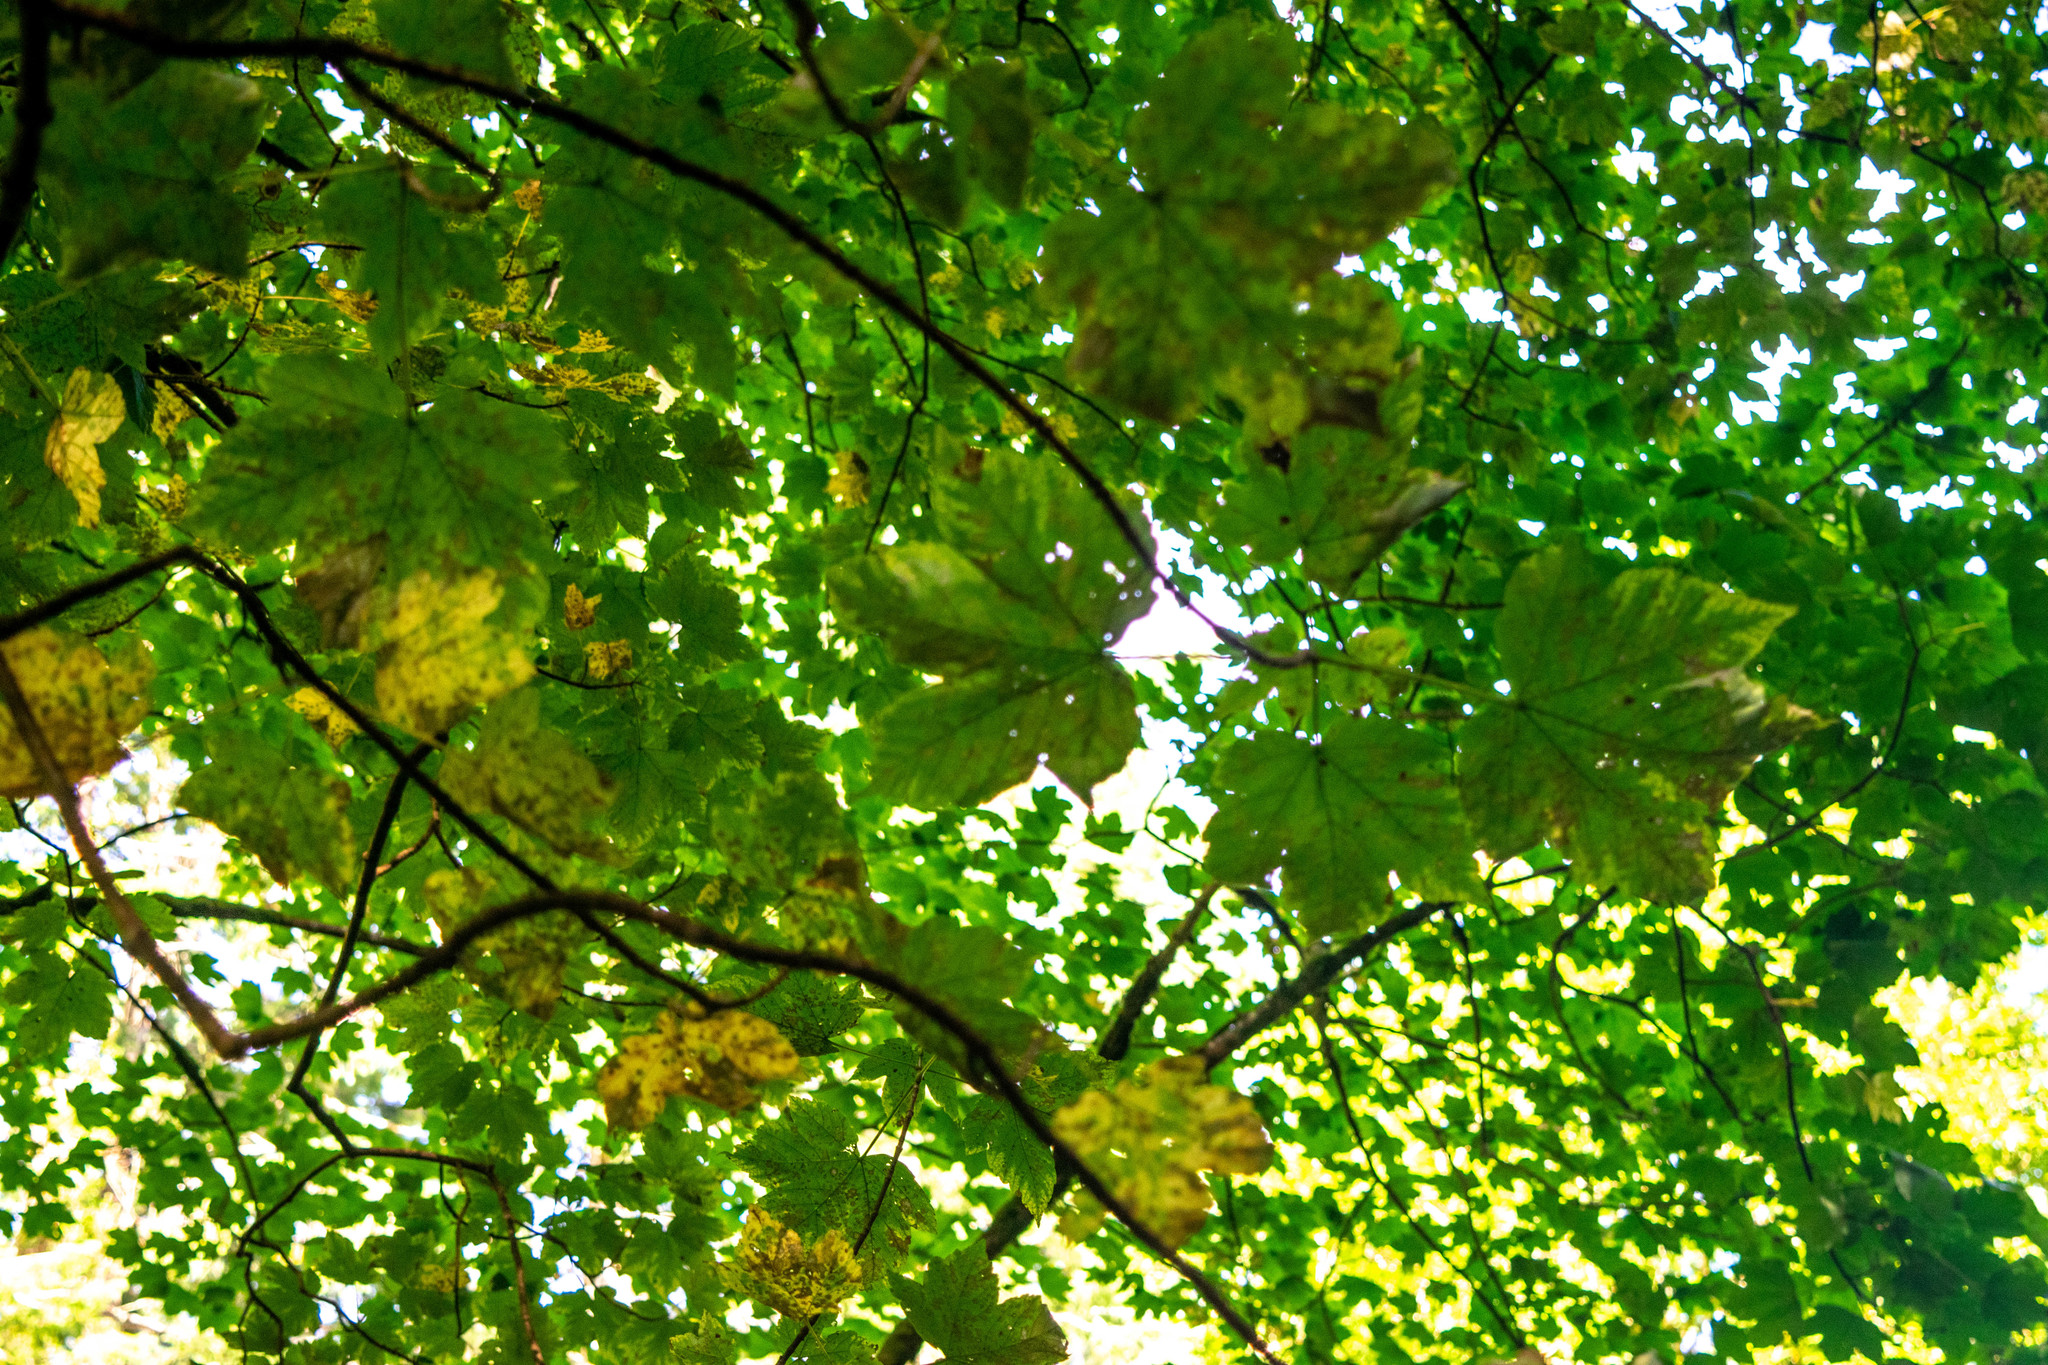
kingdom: Plantae
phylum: Tracheophyta
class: Magnoliopsida
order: Sapindales
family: Sapindaceae
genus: Acer
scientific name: Acer pseudoplatanus
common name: Sycamore
